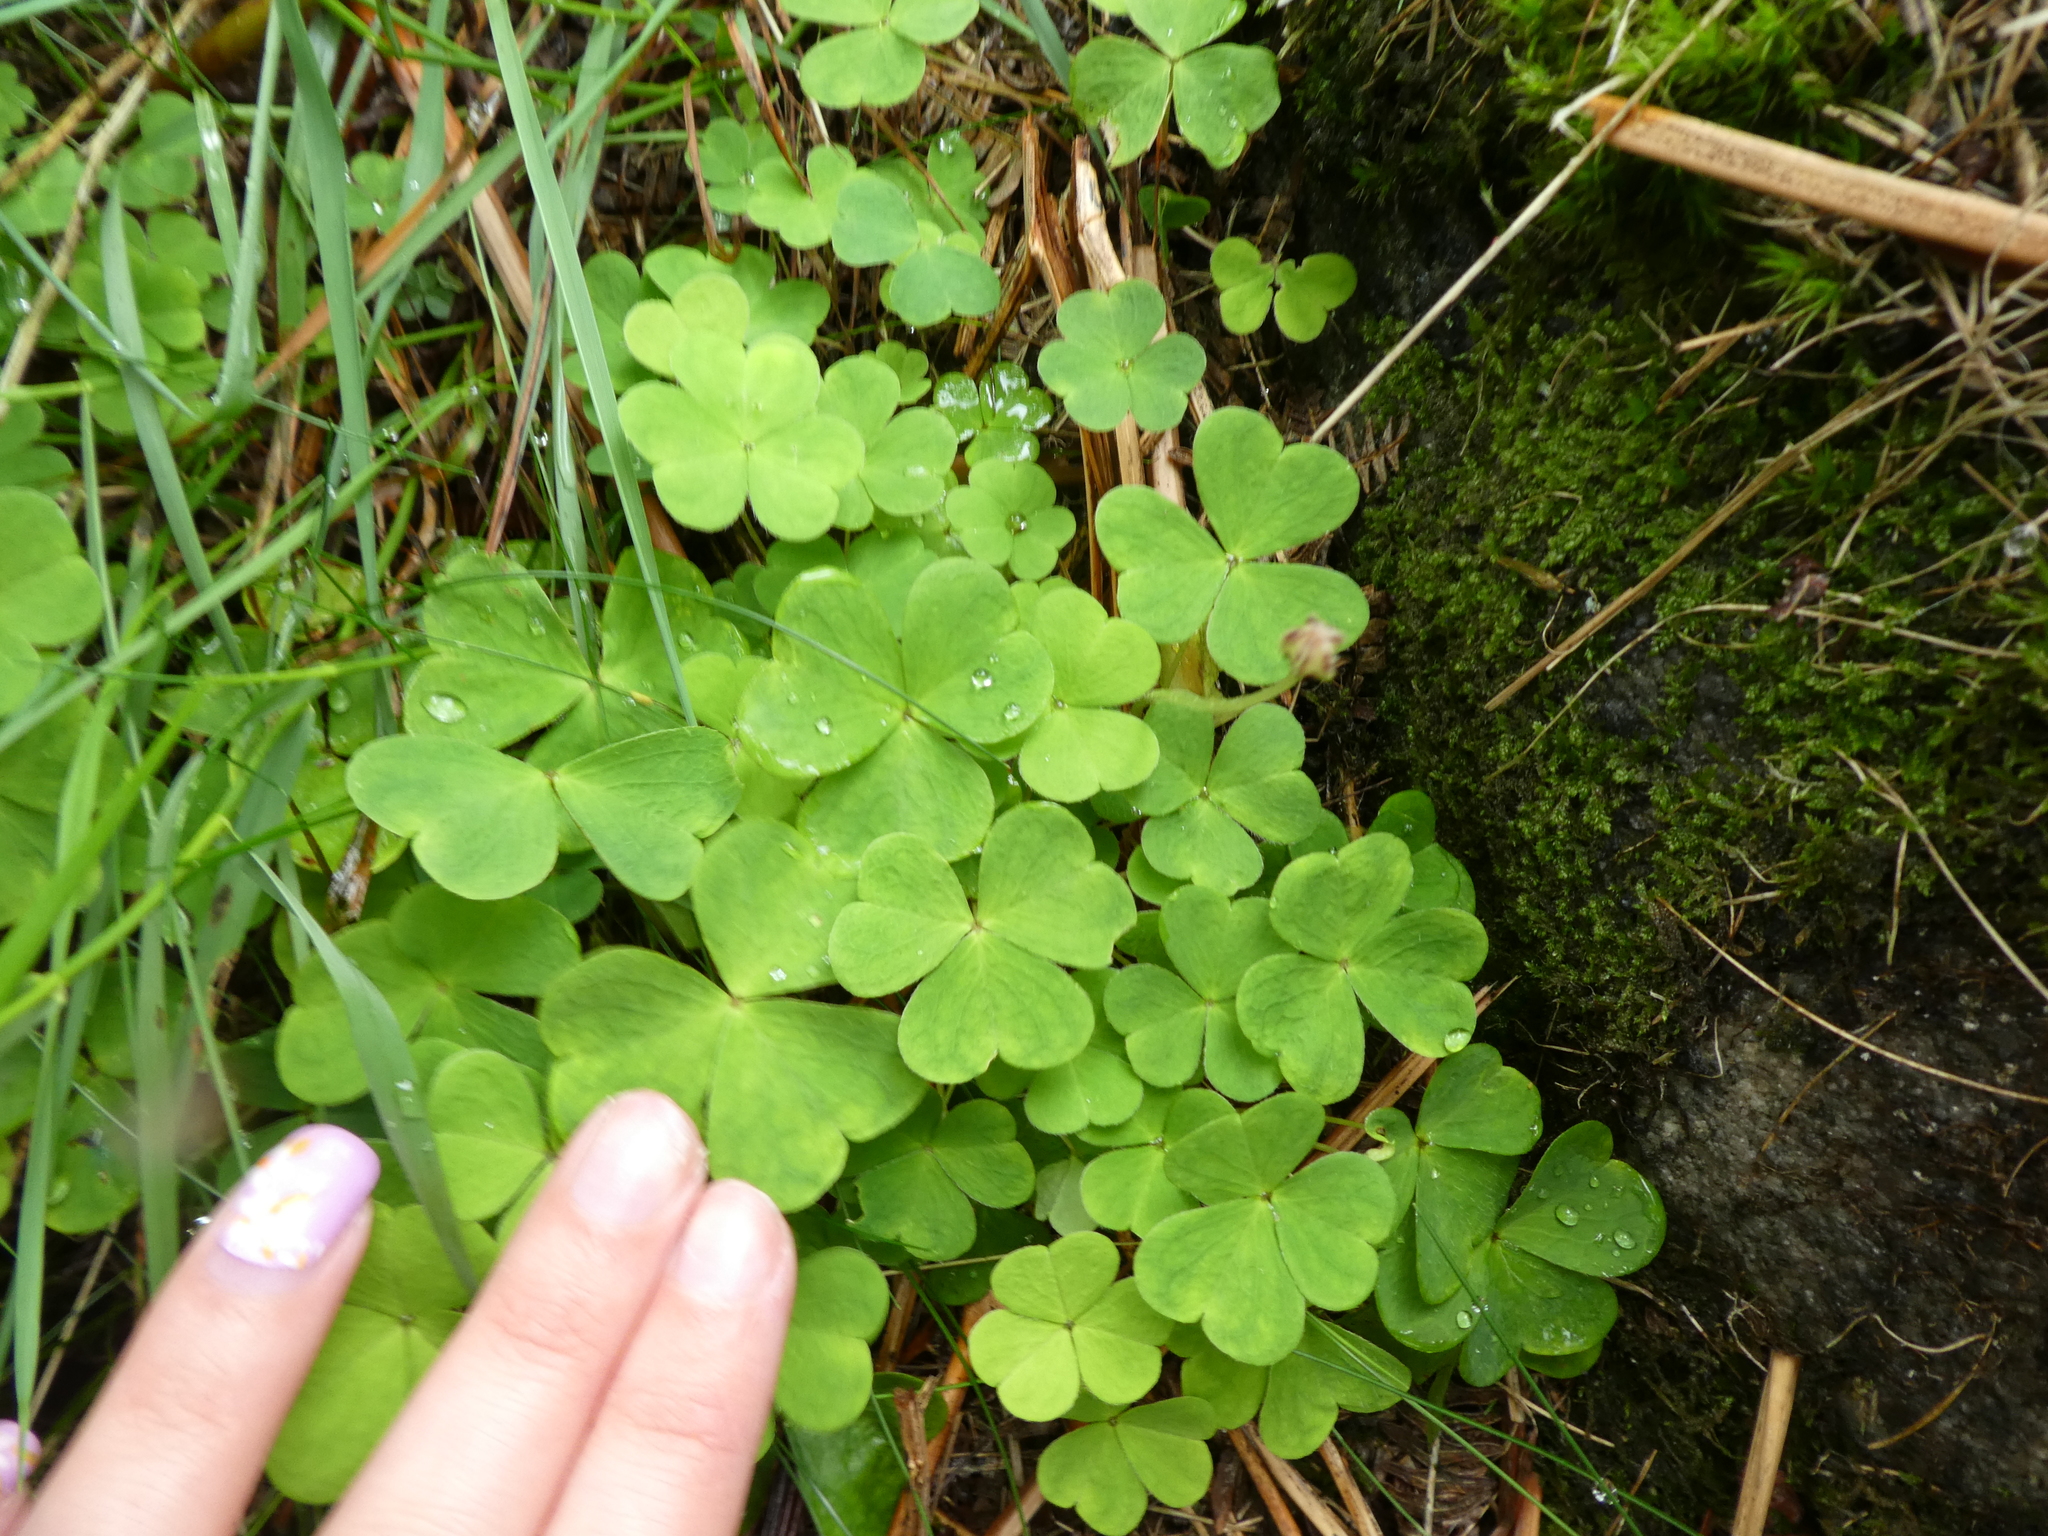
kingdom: Plantae
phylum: Tracheophyta
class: Magnoliopsida
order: Oxalidales
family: Oxalidaceae
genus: Oxalis
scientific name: Oxalis acetosella
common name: Wood-sorrel
